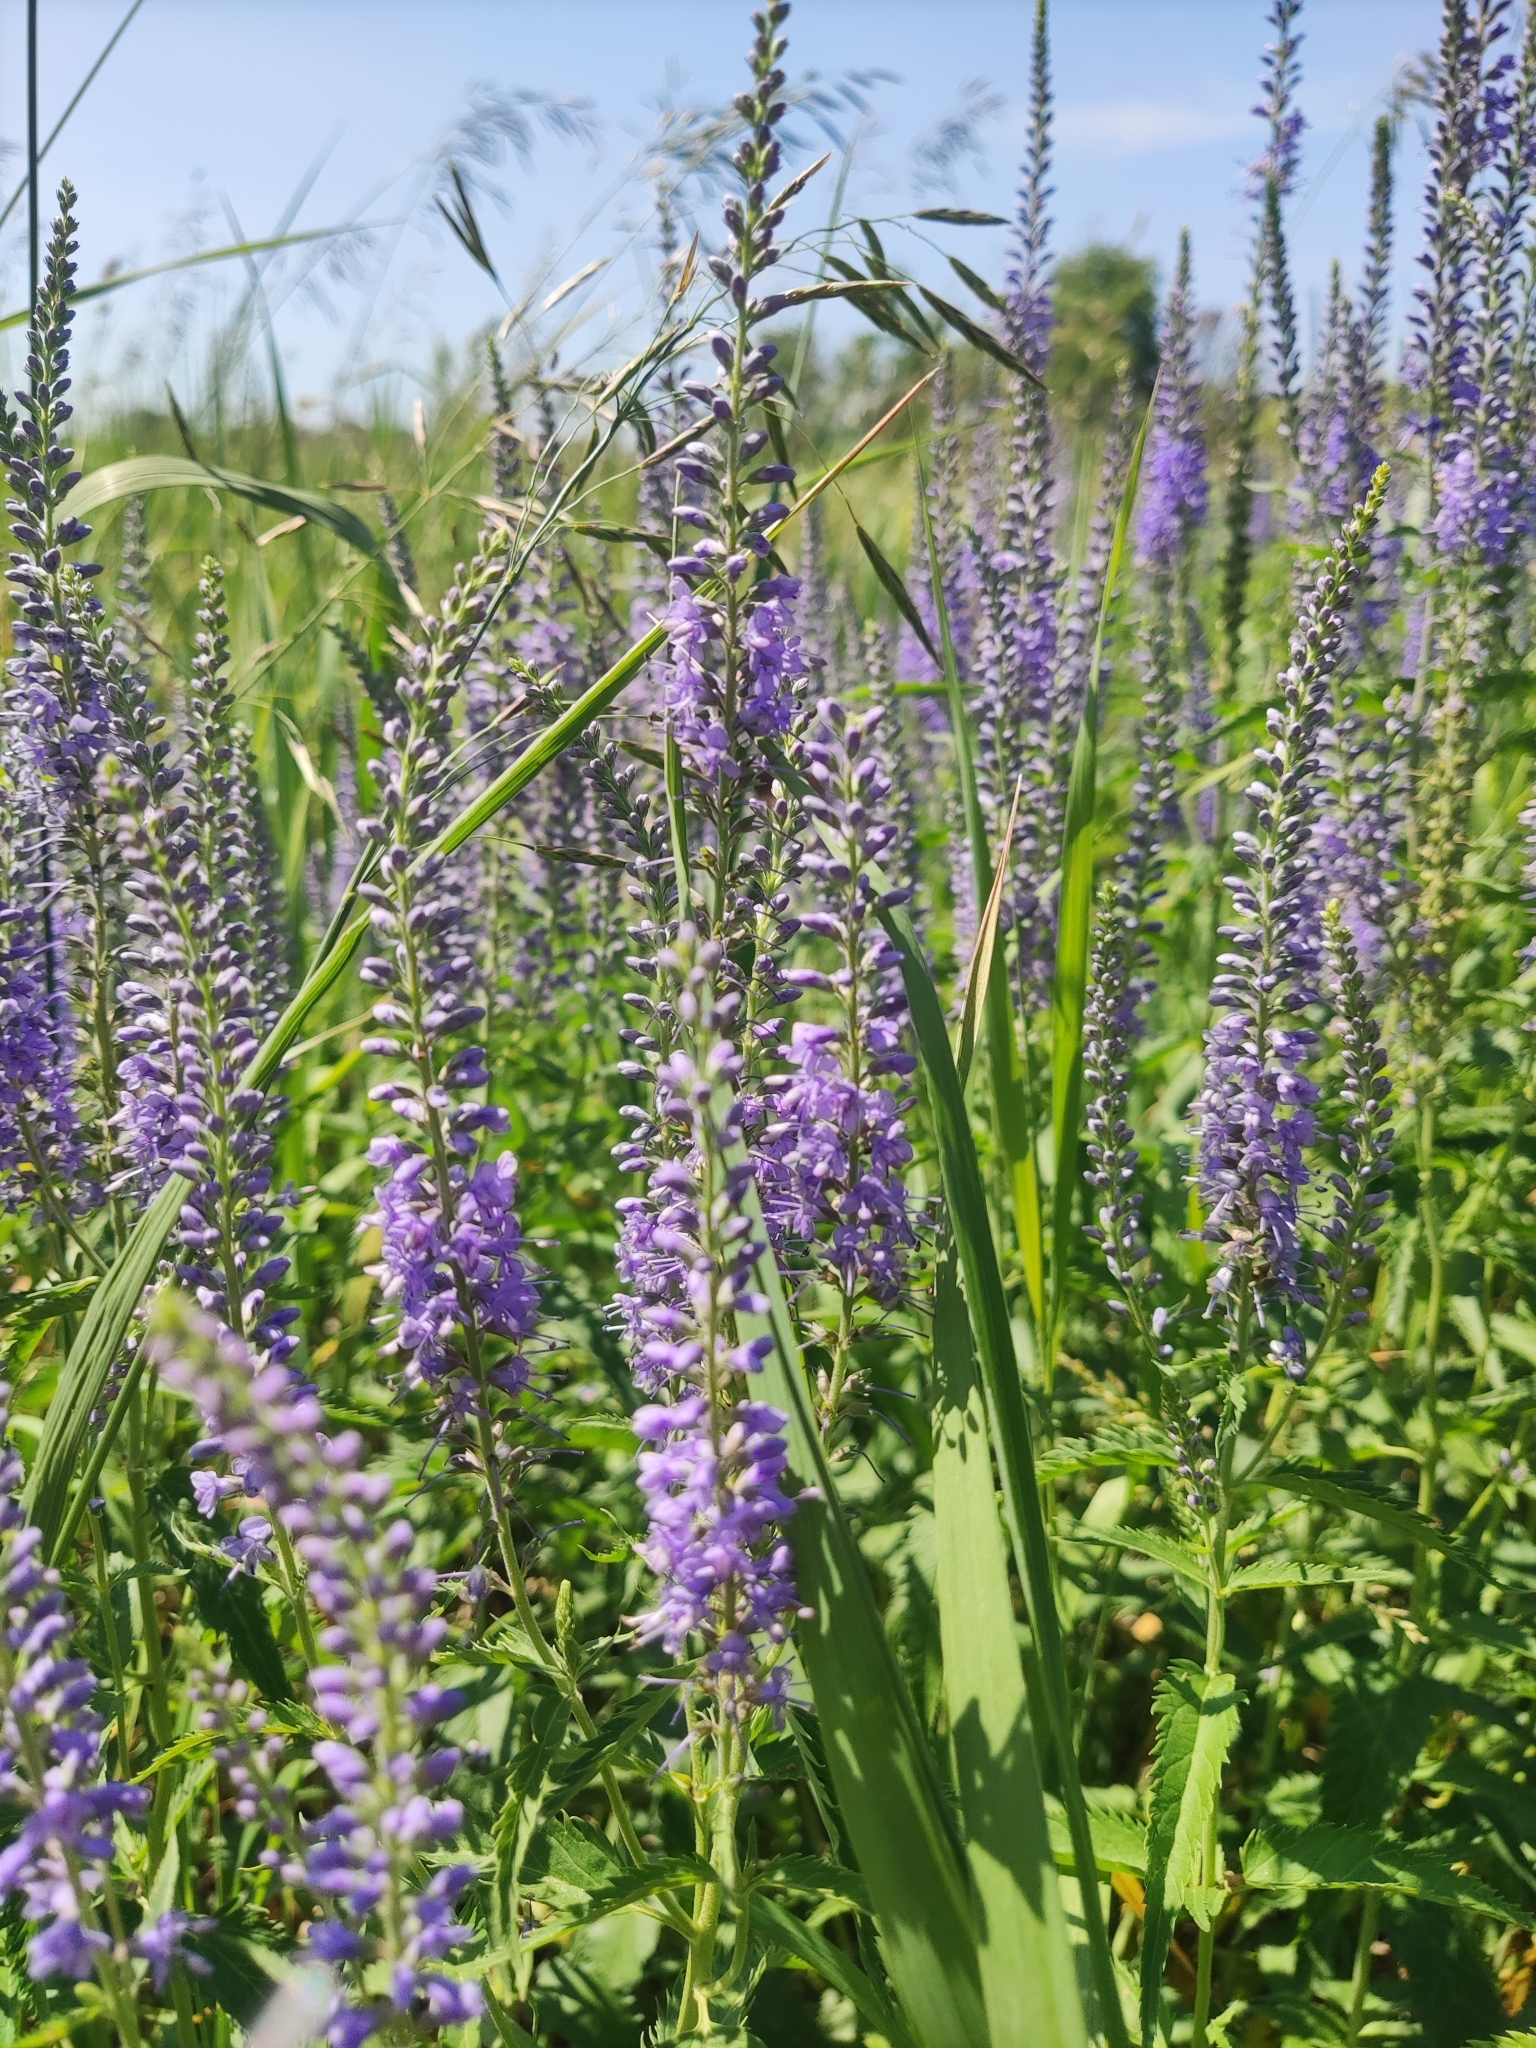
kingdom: Plantae
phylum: Tracheophyta
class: Magnoliopsida
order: Lamiales
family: Plantaginaceae
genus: Veronica
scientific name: Veronica longifolia
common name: Garden speedwell
